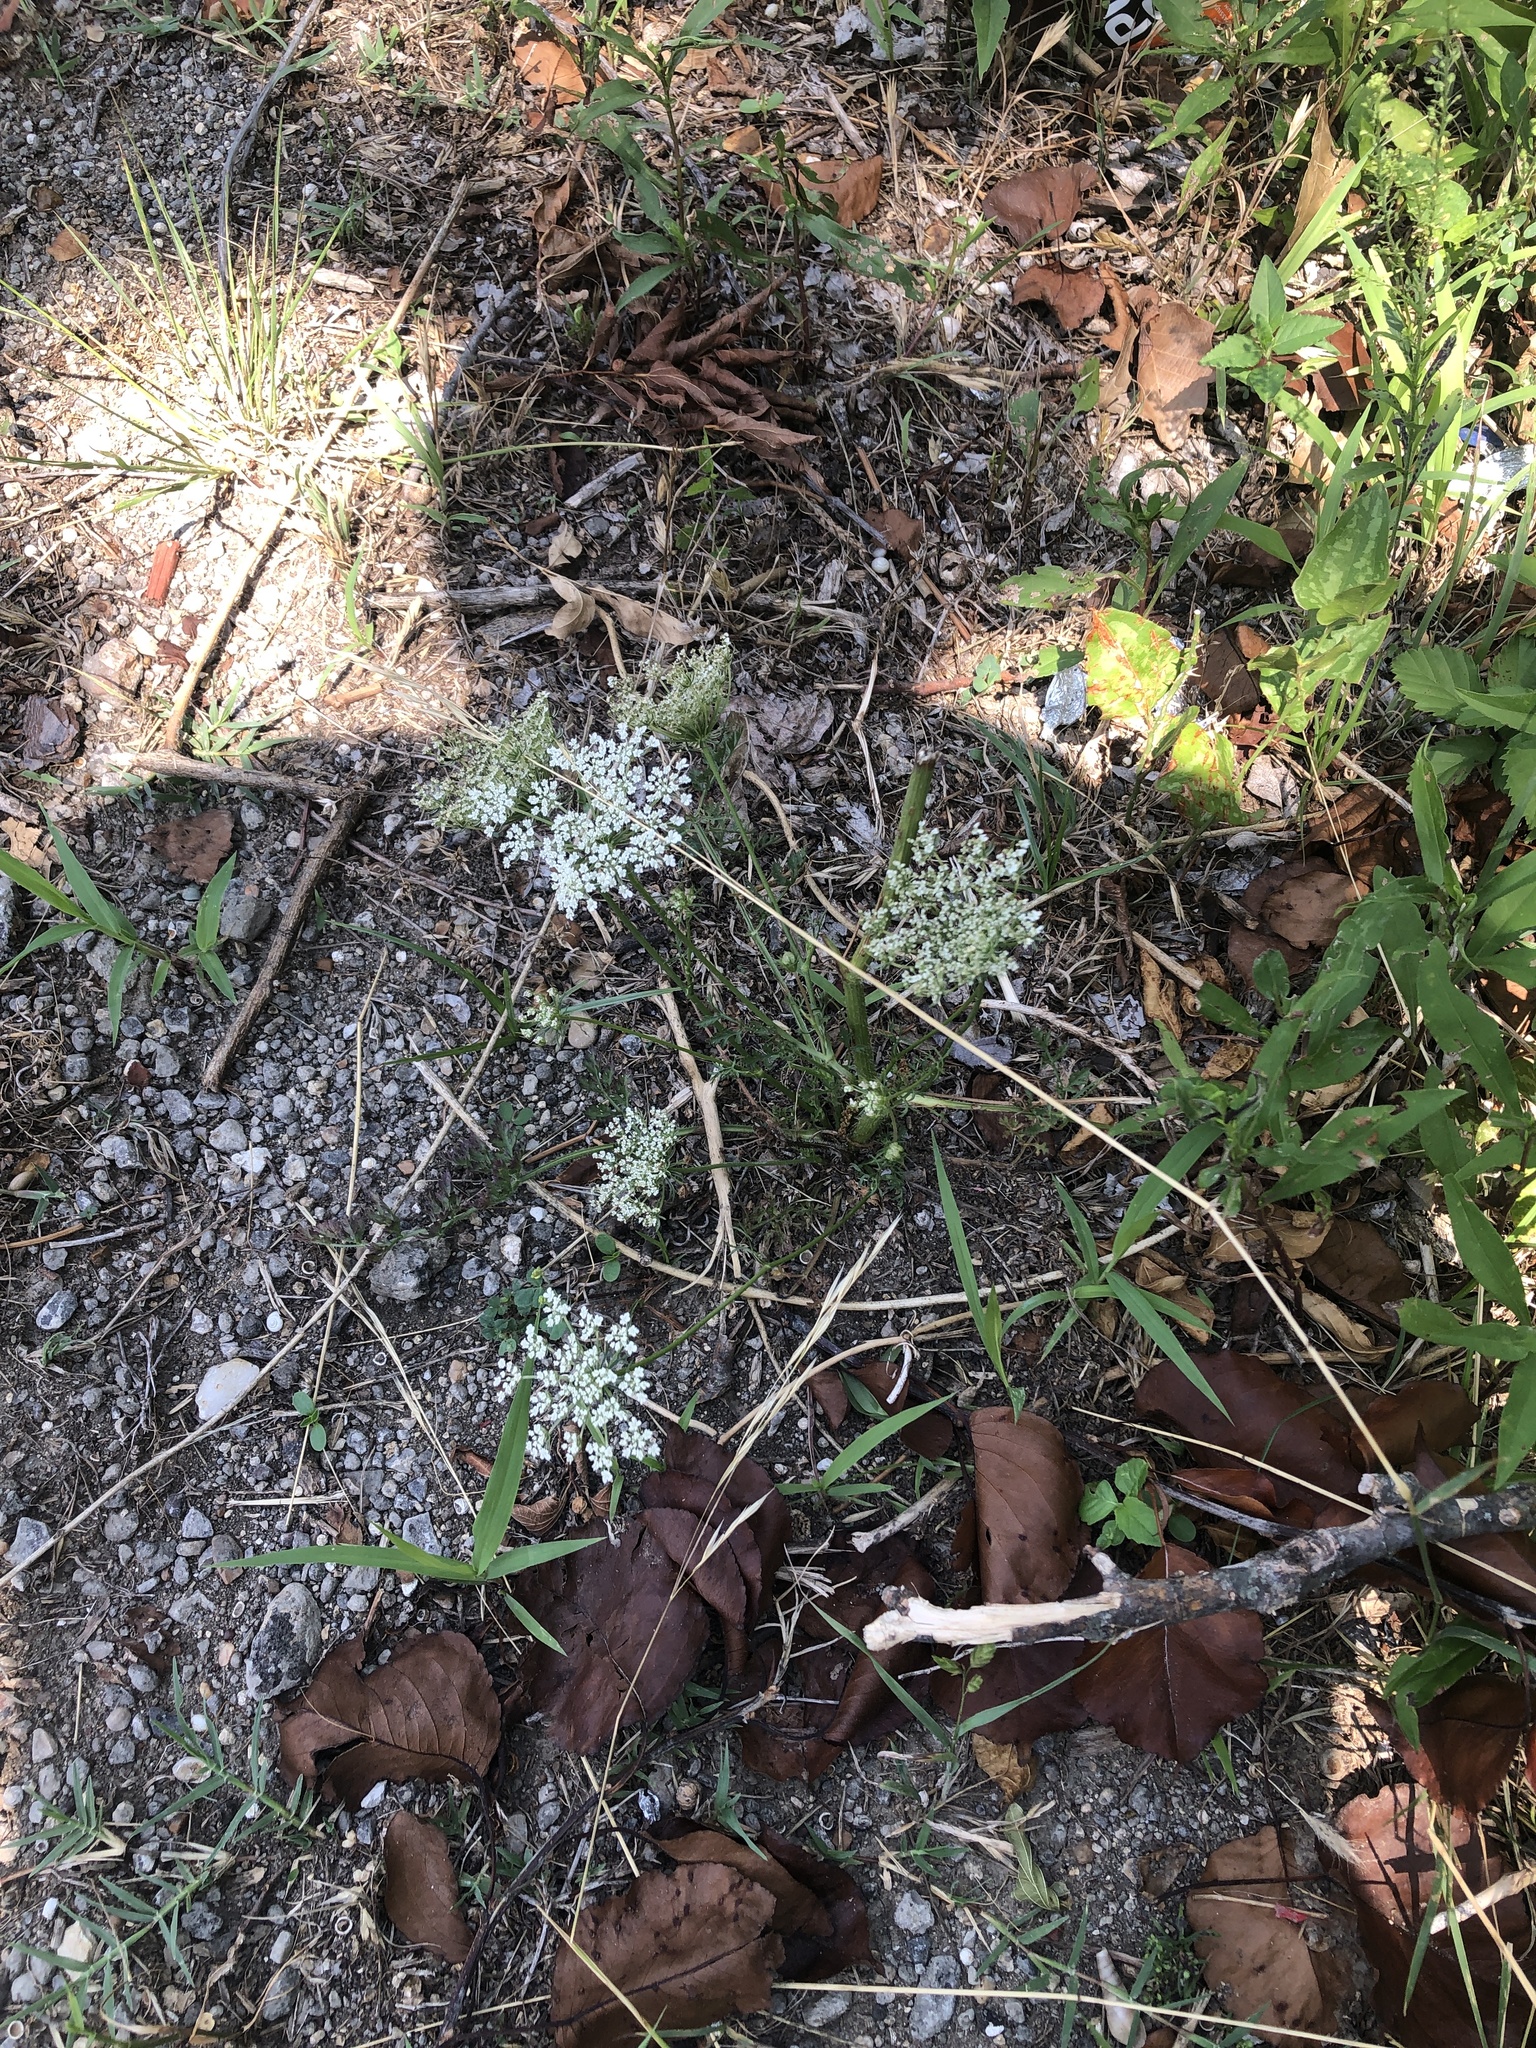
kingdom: Plantae
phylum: Tracheophyta
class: Magnoliopsida
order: Apiales
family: Apiaceae
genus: Daucus
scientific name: Daucus carota
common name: Wild carrot
